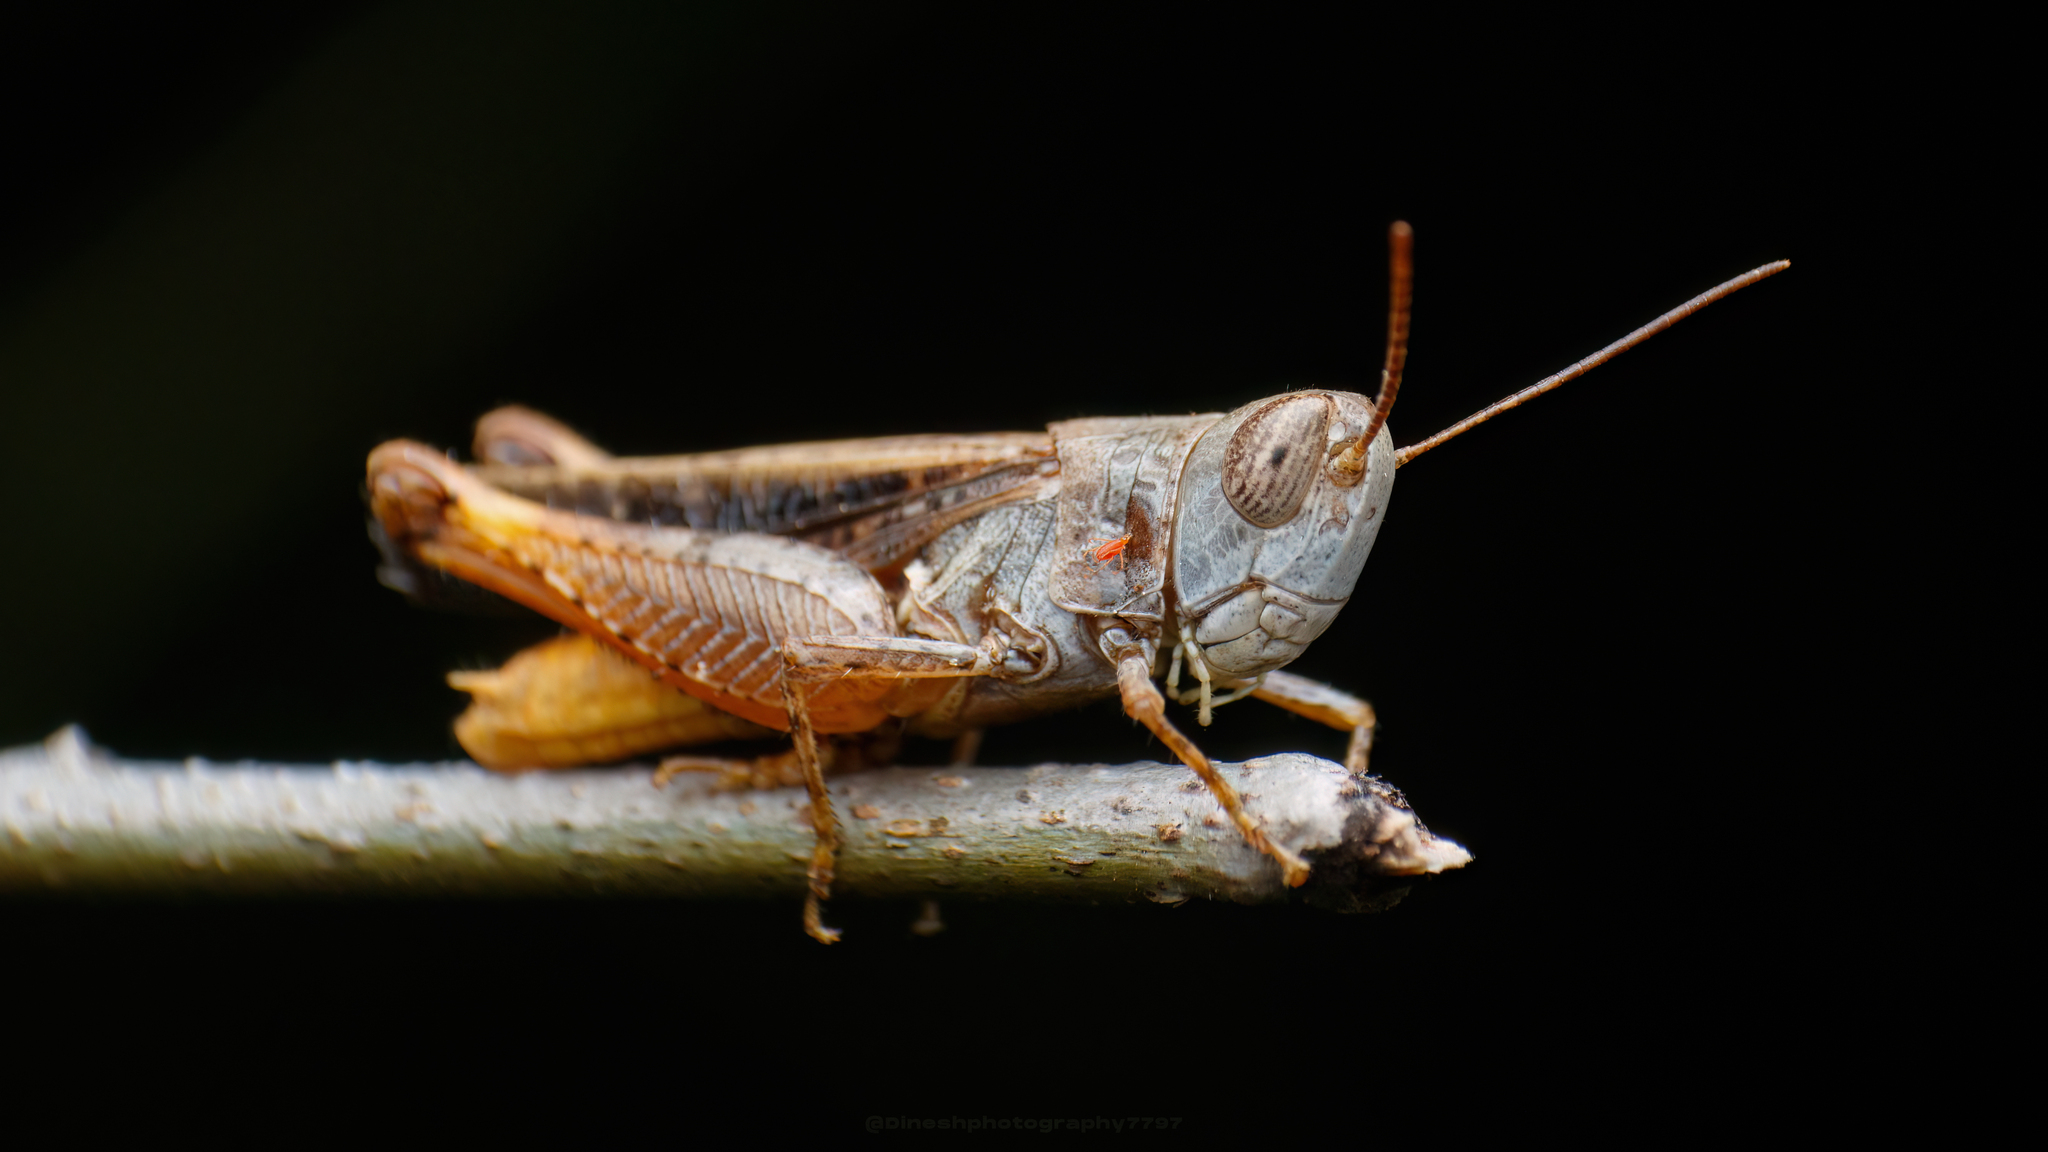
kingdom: Animalia
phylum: Arthropoda
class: Insecta
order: Orthoptera
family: Acrididae
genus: Leva
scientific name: Leva indica
